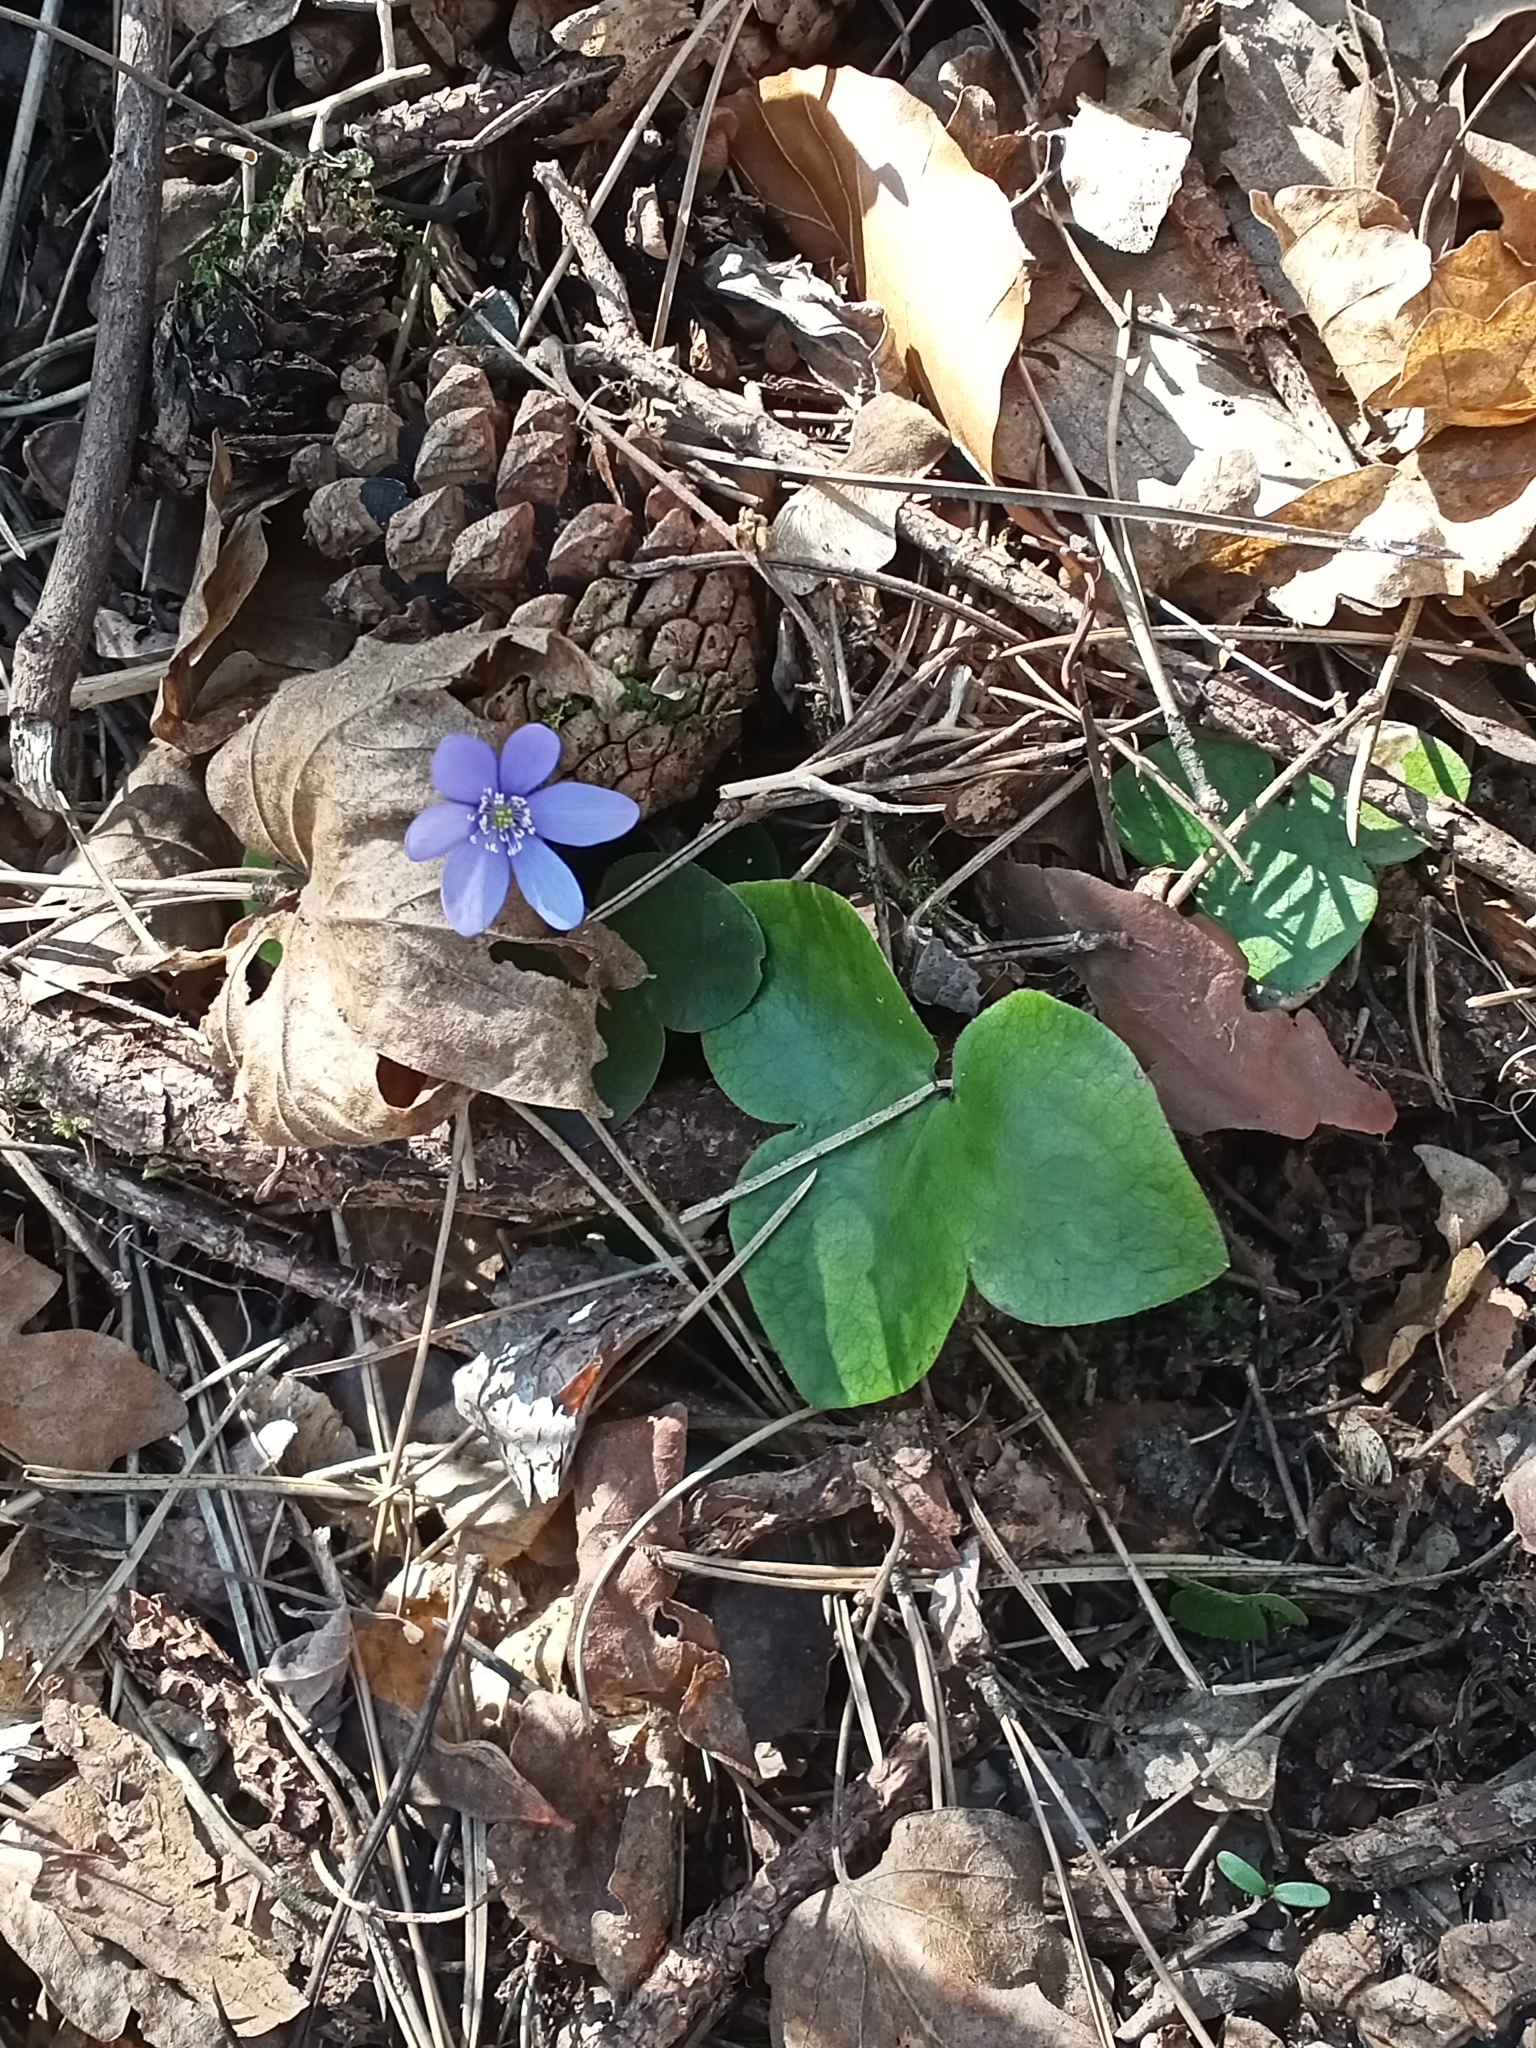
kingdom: Plantae
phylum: Tracheophyta
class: Magnoliopsida
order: Ranunculales
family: Ranunculaceae
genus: Hepatica
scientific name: Hepatica nobilis
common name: Liverleaf
